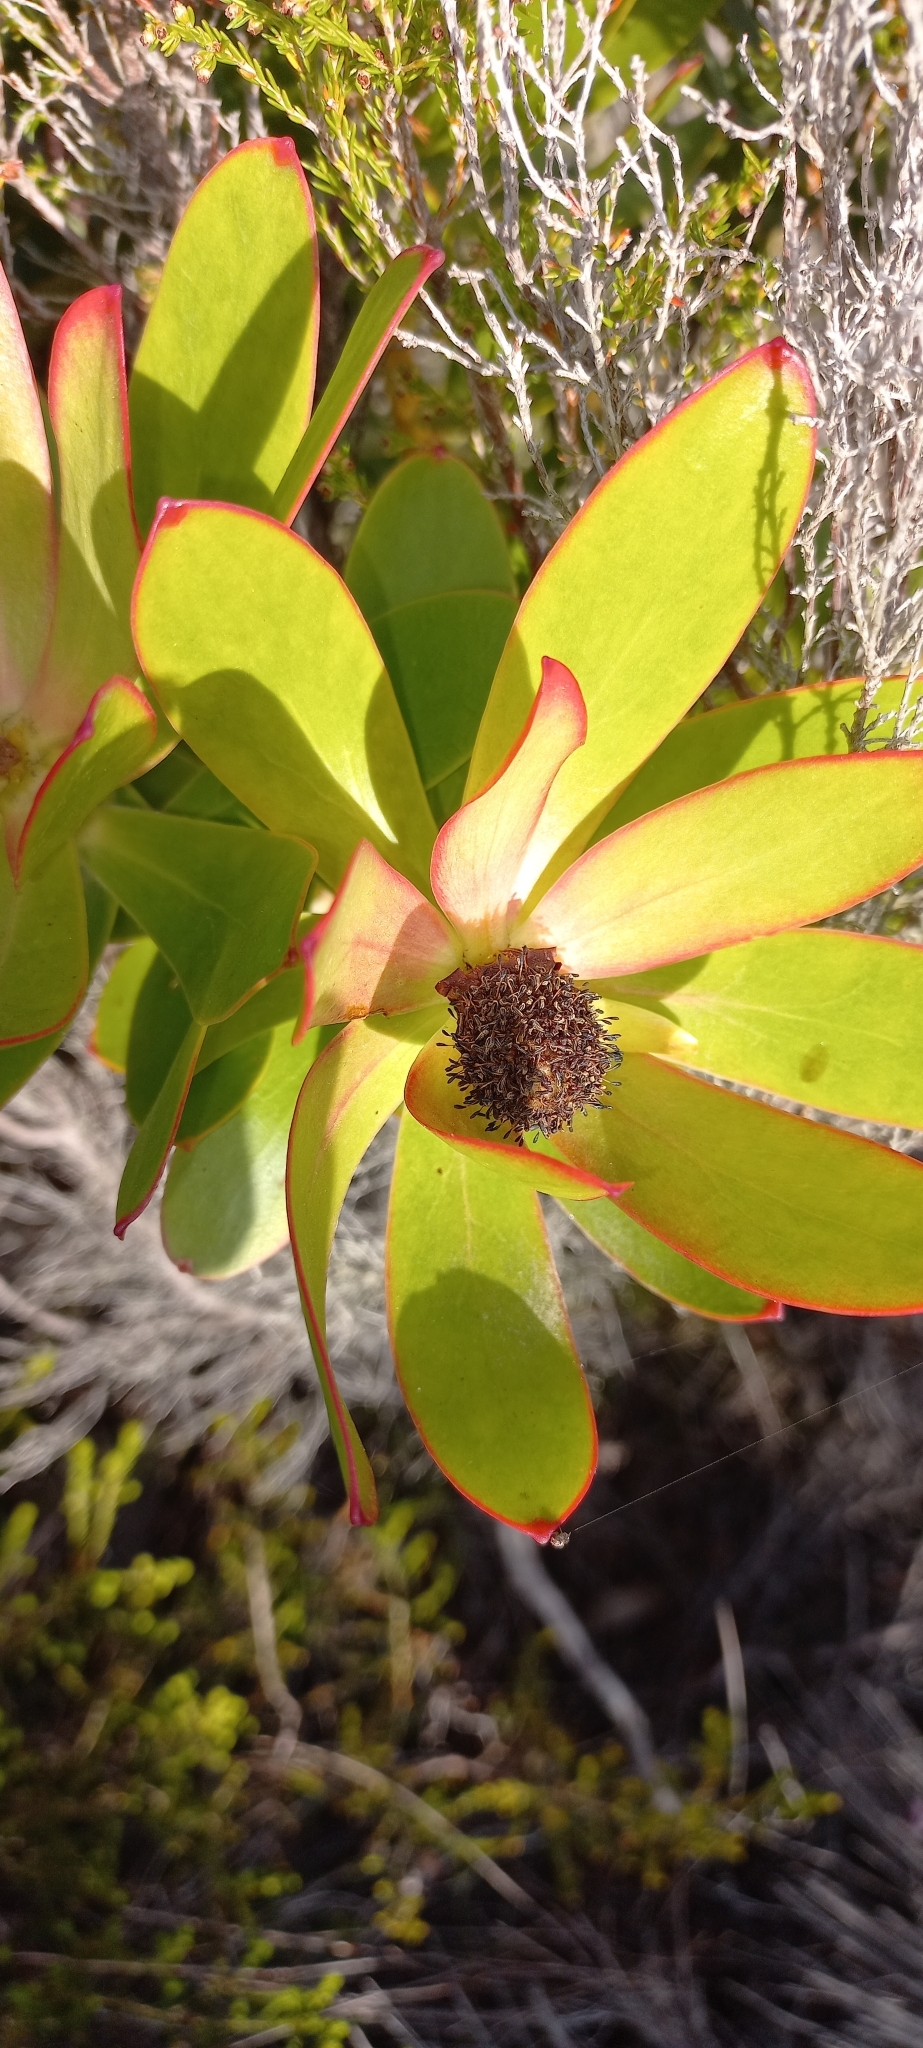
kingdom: Plantae
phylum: Tracheophyta
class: Magnoliopsida
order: Proteales
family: Proteaceae
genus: Leucadendron
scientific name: Leucadendron gandogeri
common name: Broad-leaf conebush
